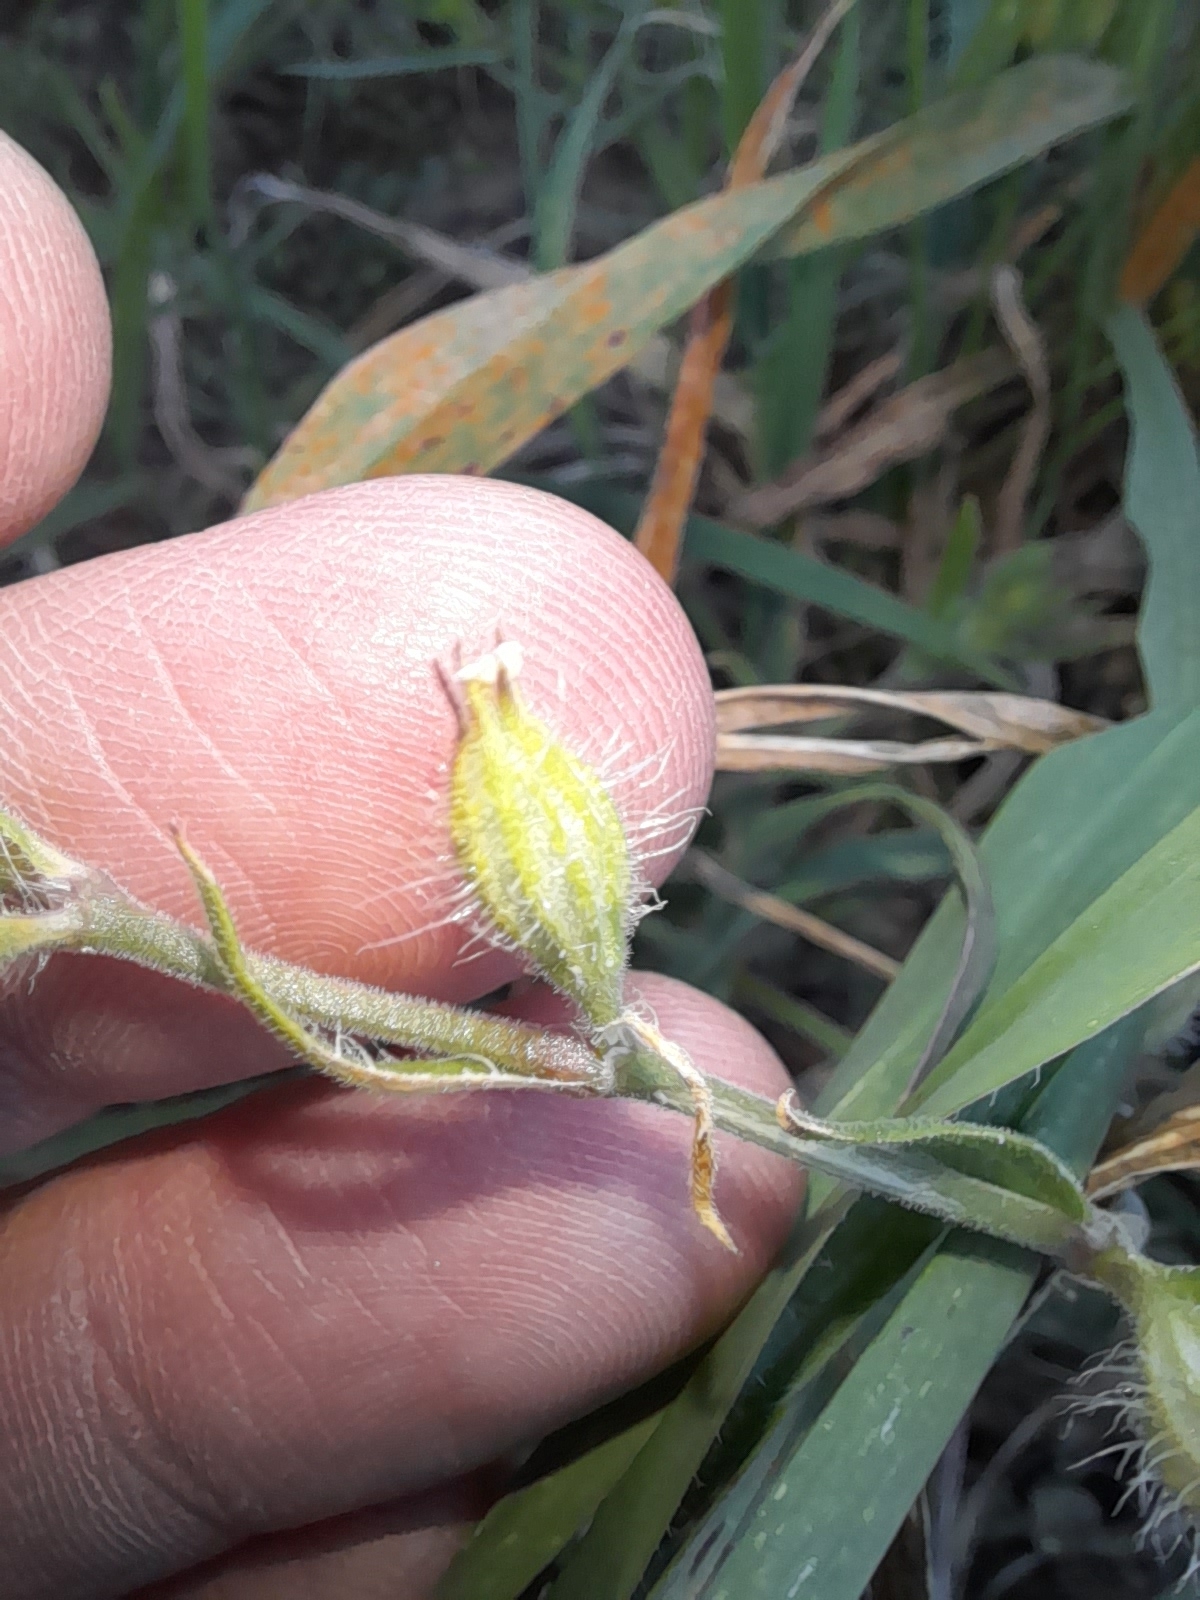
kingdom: Plantae
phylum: Tracheophyta
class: Magnoliopsida
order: Caryophyllales
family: Caryophyllaceae
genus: Silene
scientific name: Silene gallica
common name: Small-flowered catchfly
